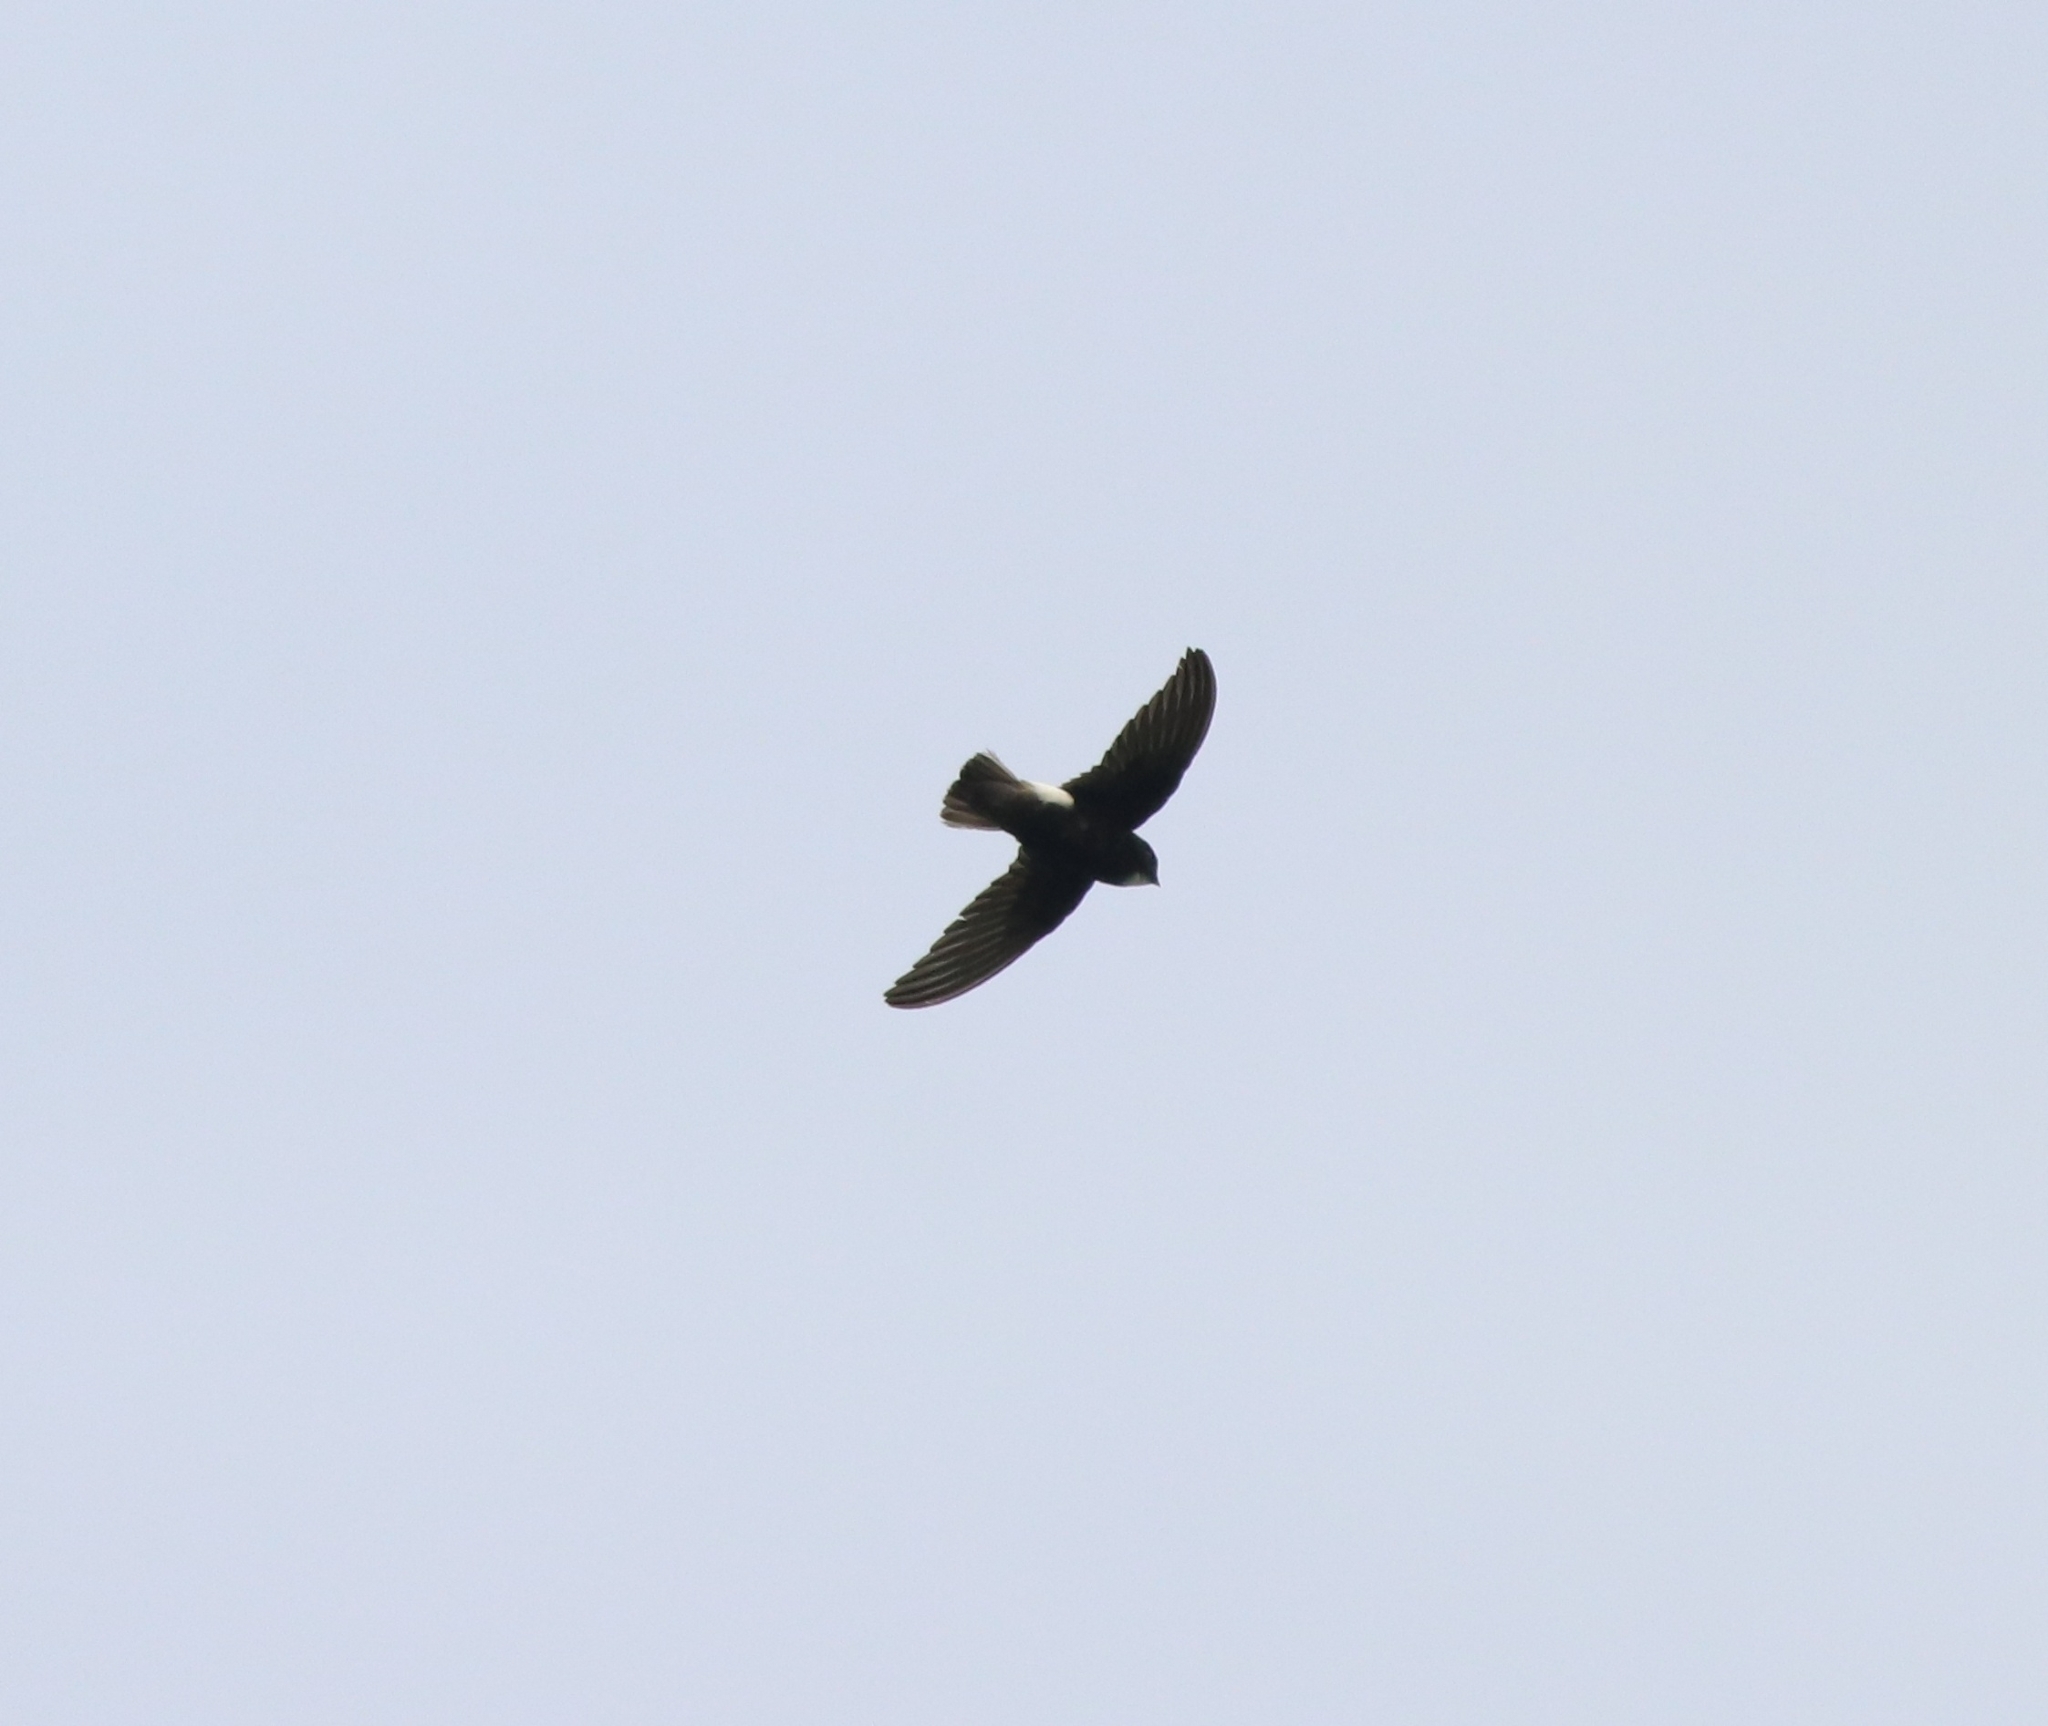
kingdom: Animalia
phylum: Chordata
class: Aves
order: Apodiformes
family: Apodidae
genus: Apus
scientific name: Apus affinis
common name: Little swift
